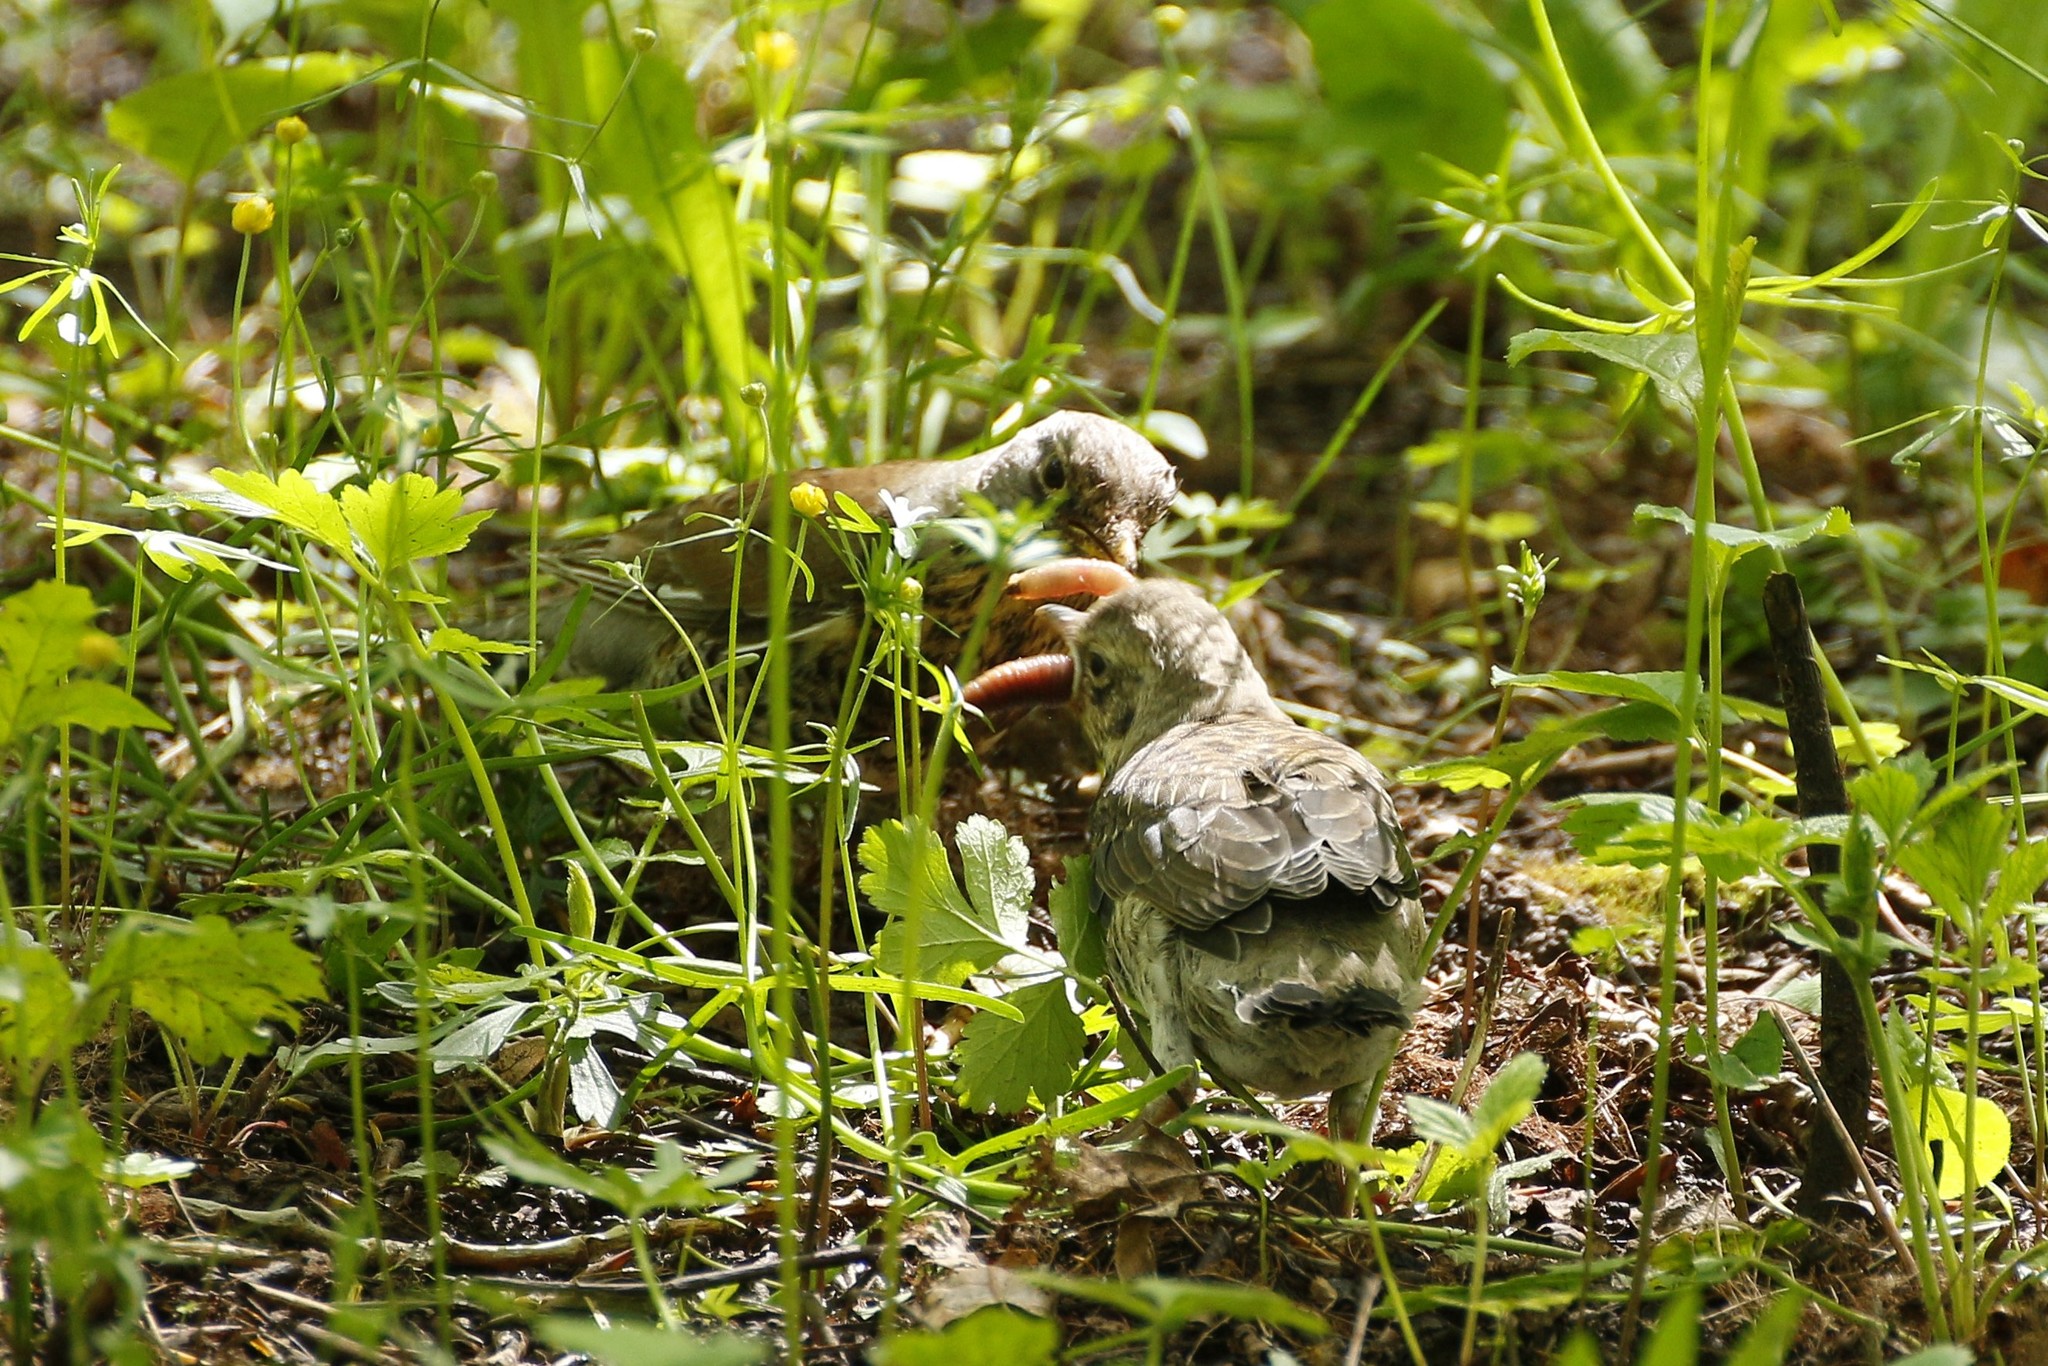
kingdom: Animalia
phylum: Chordata
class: Aves
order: Passeriformes
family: Turdidae
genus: Turdus
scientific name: Turdus pilaris
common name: Fieldfare
